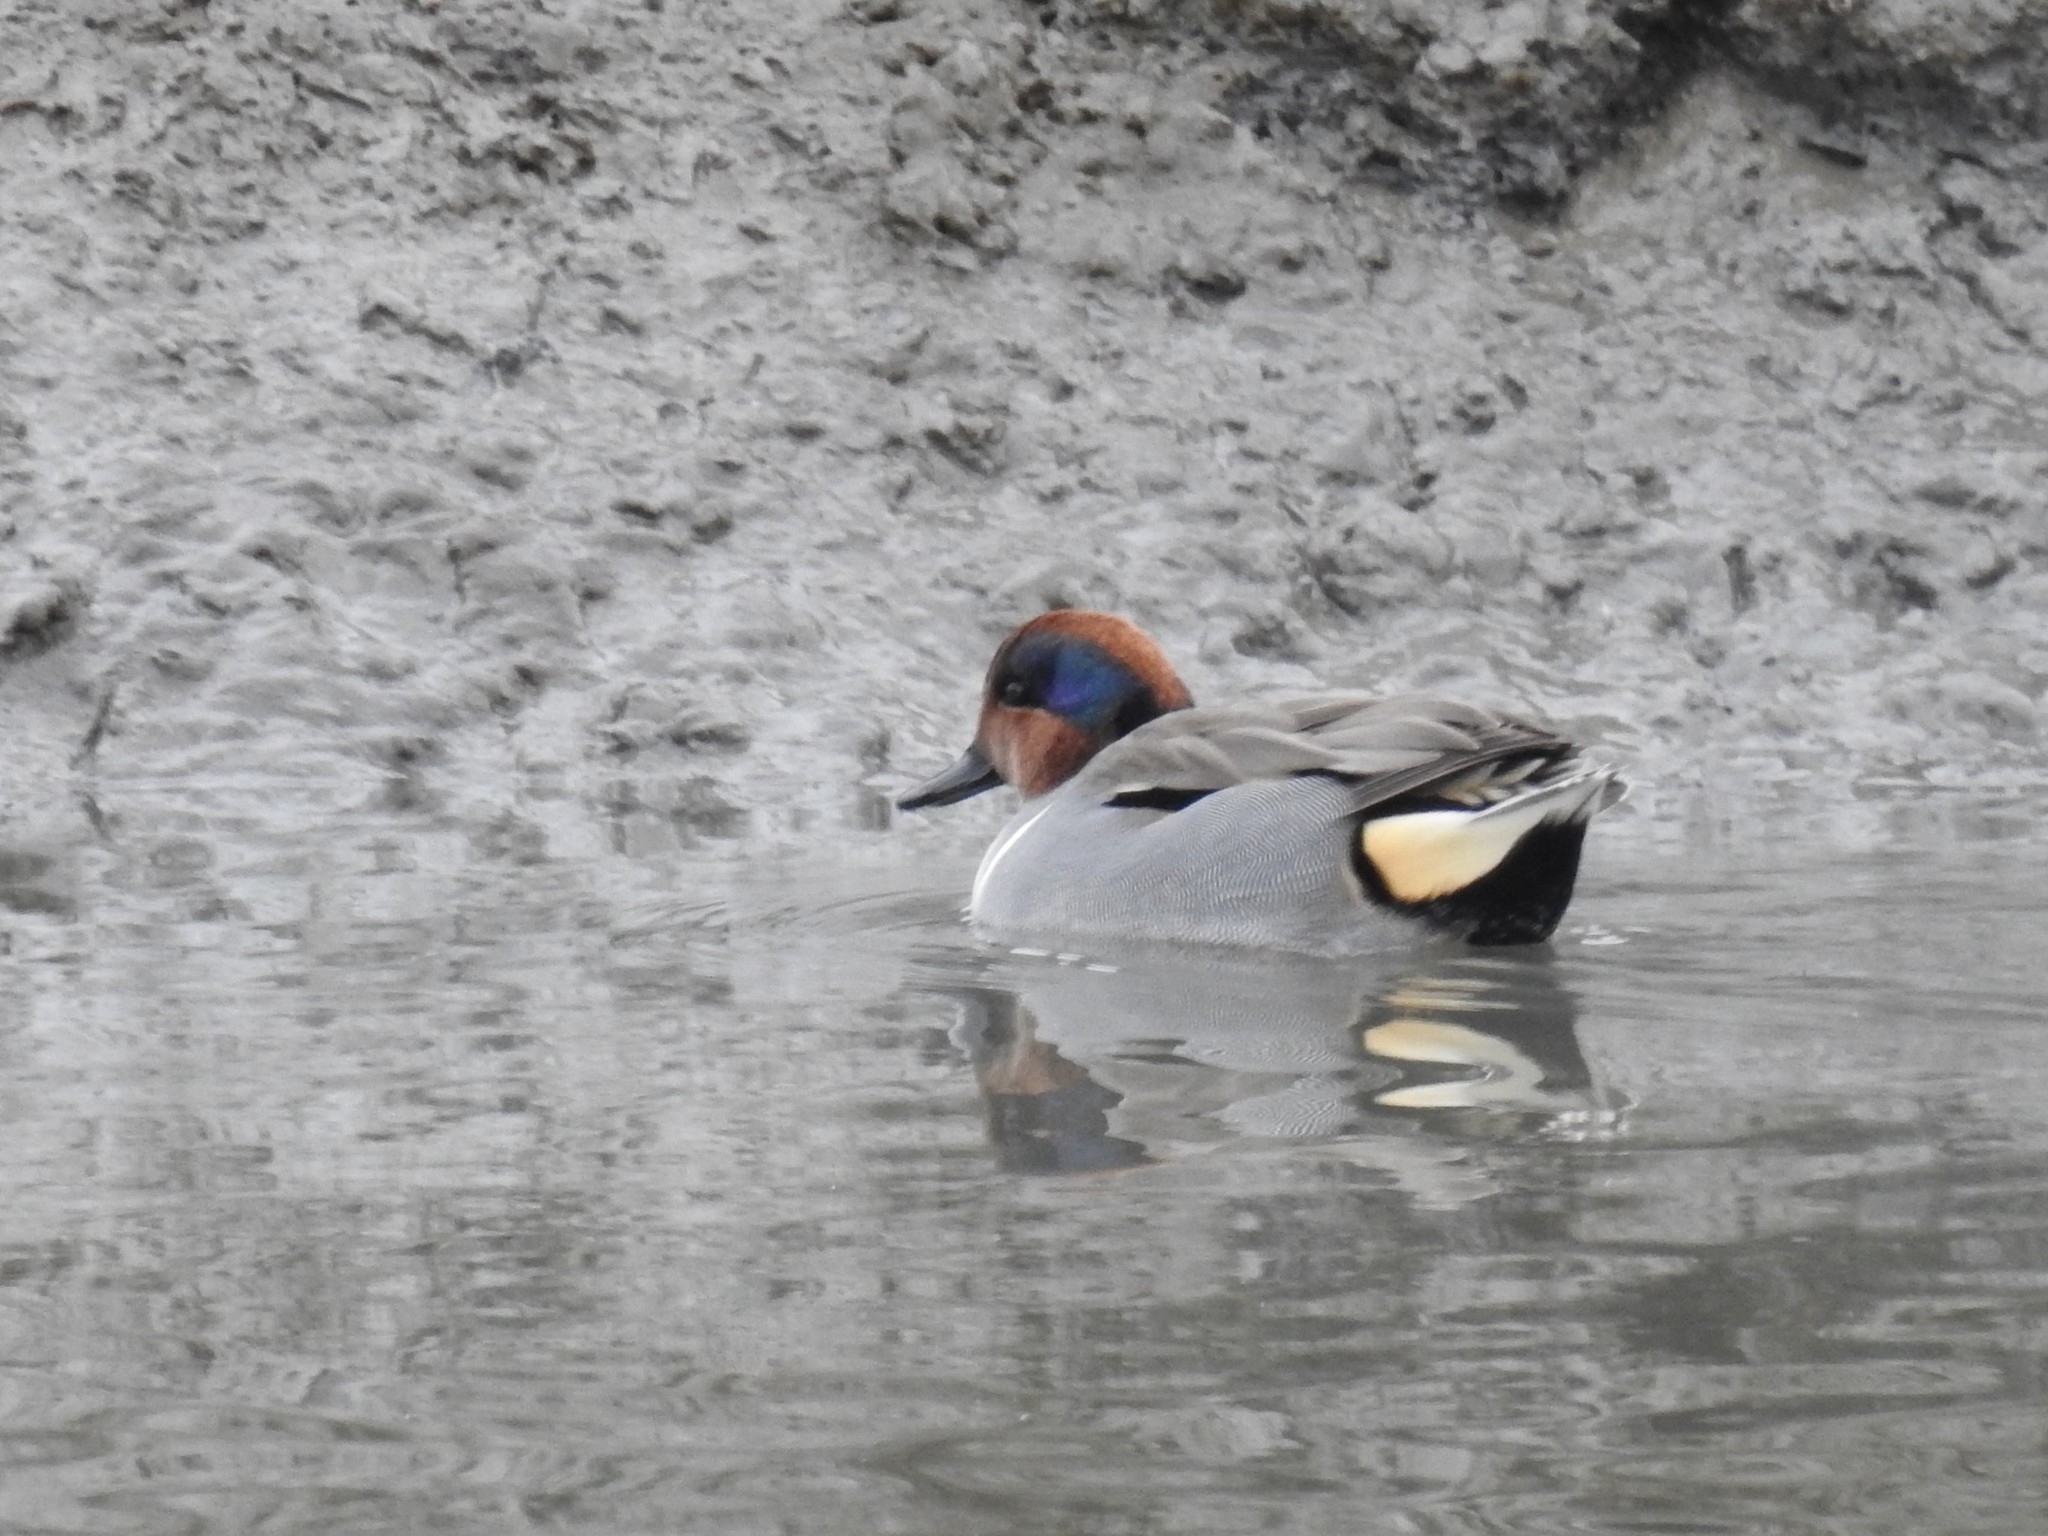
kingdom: Animalia
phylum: Chordata
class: Aves
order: Anseriformes
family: Anatidae
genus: Anas
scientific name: Anas crecca
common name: Eurasian teal
